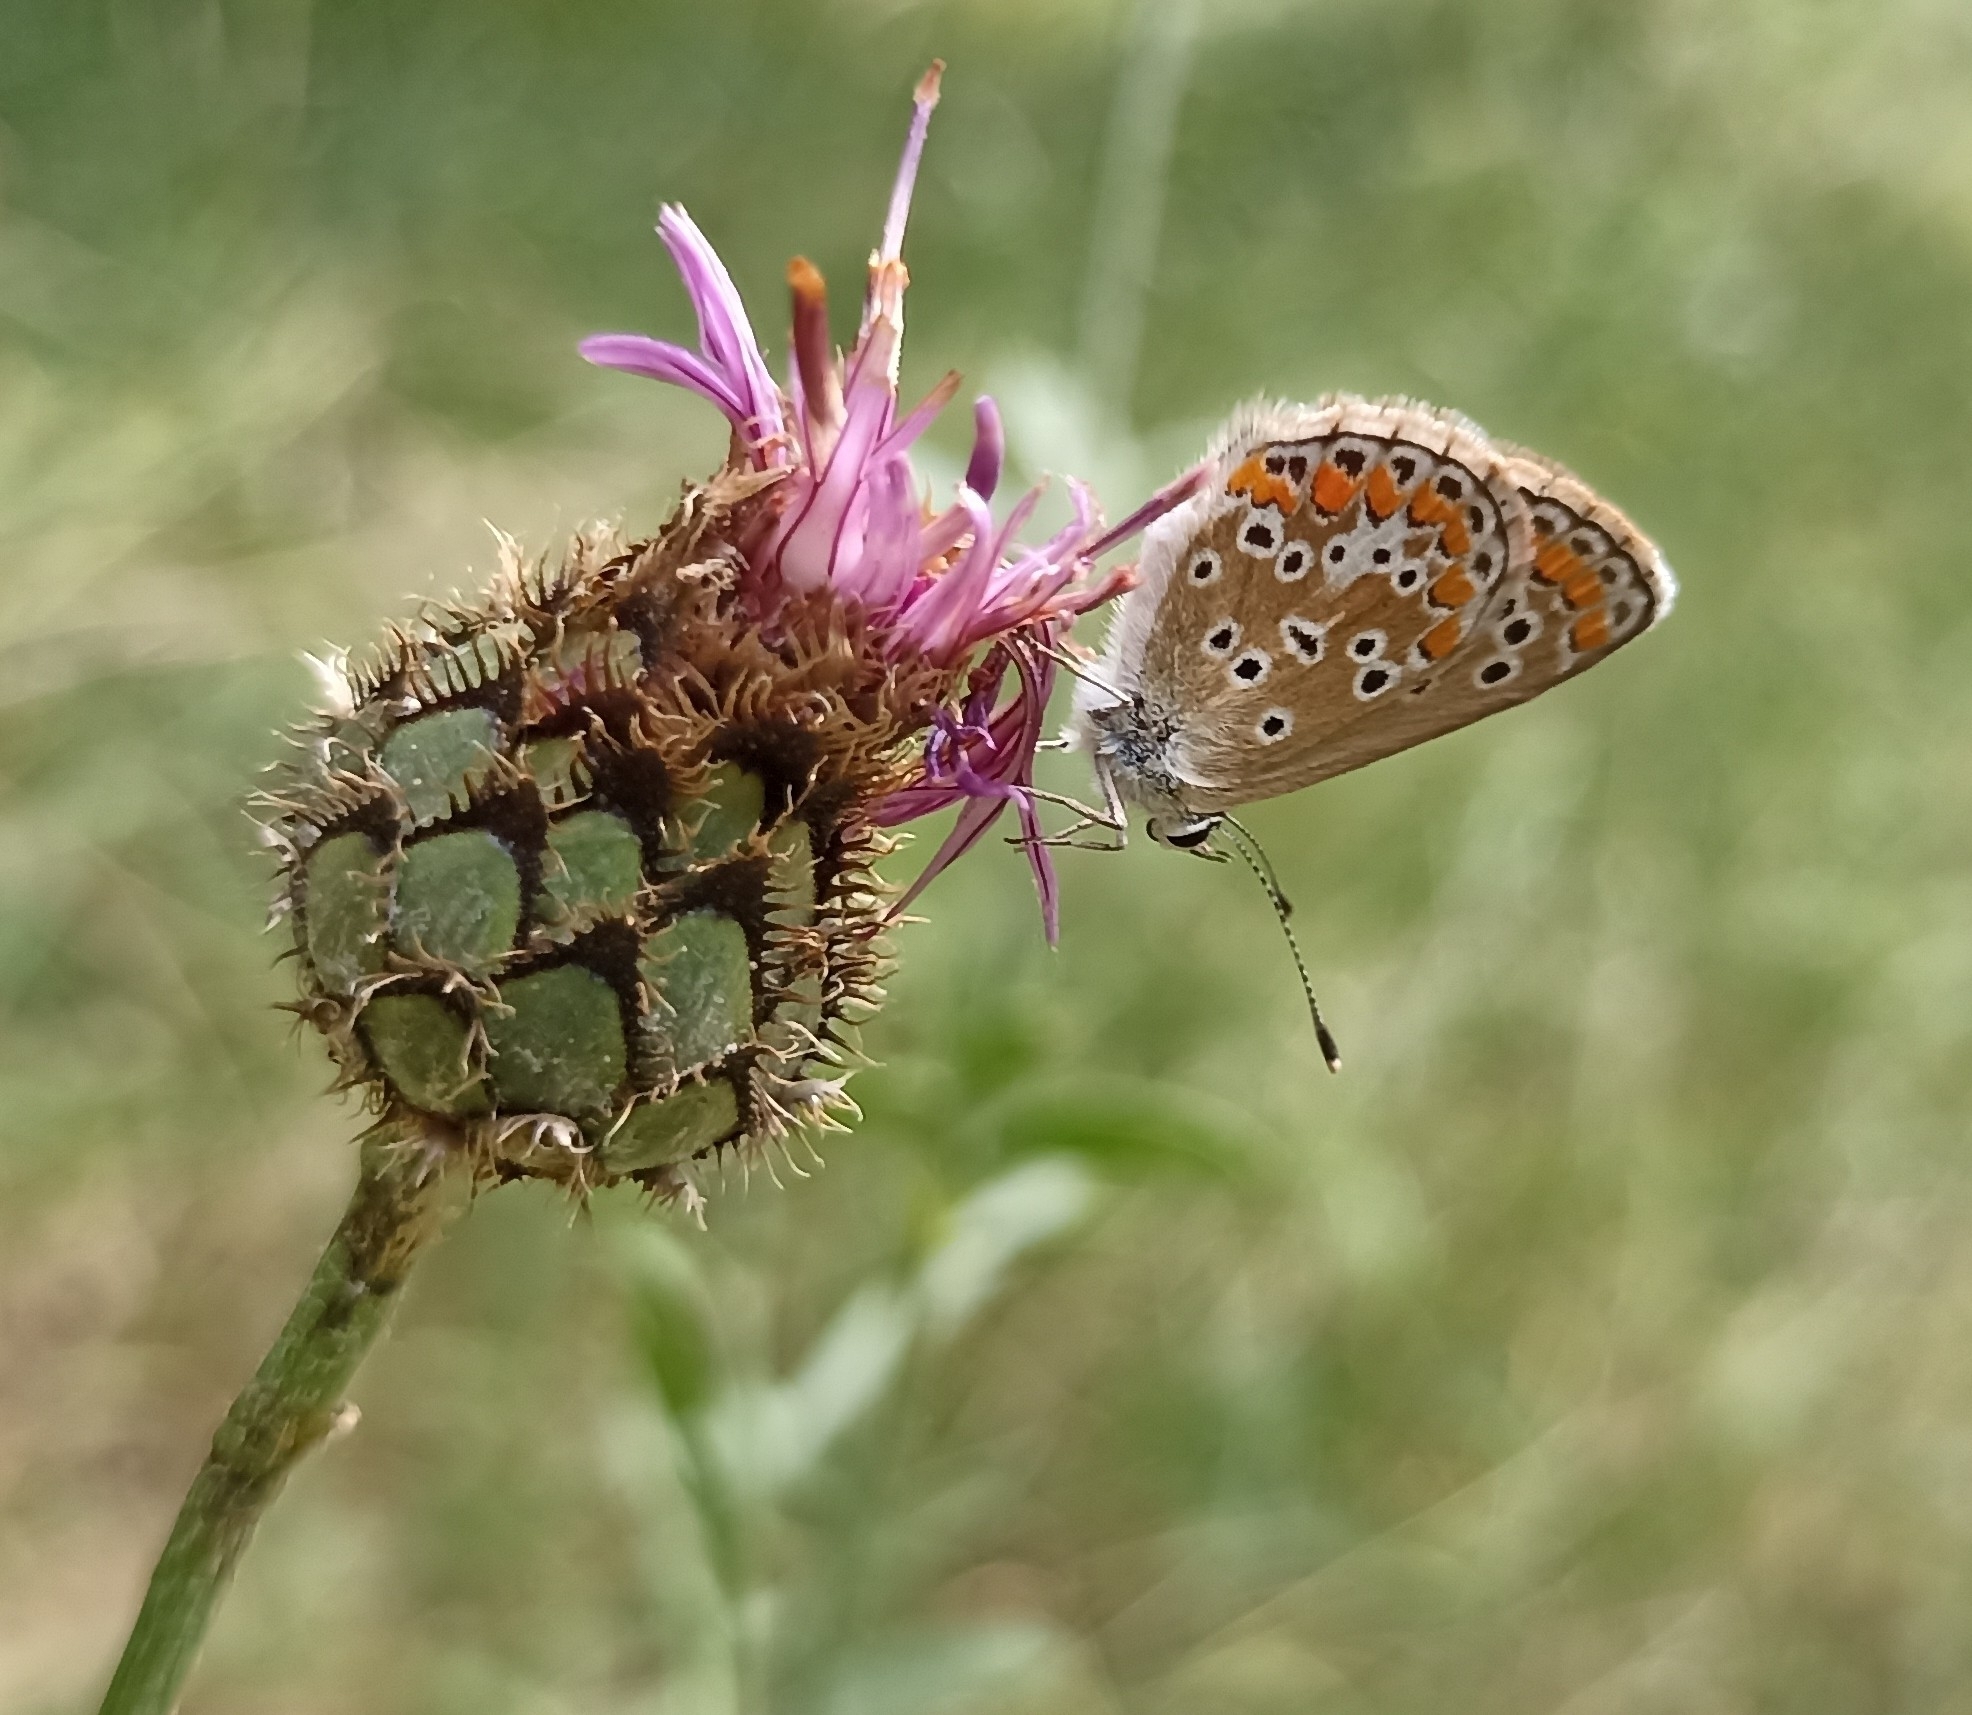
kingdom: Animalia
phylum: Arthropoda
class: Insecta
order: Lepidoptera
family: Lycaenidae
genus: Aricia
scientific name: Aricia agestis
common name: Brown argus
